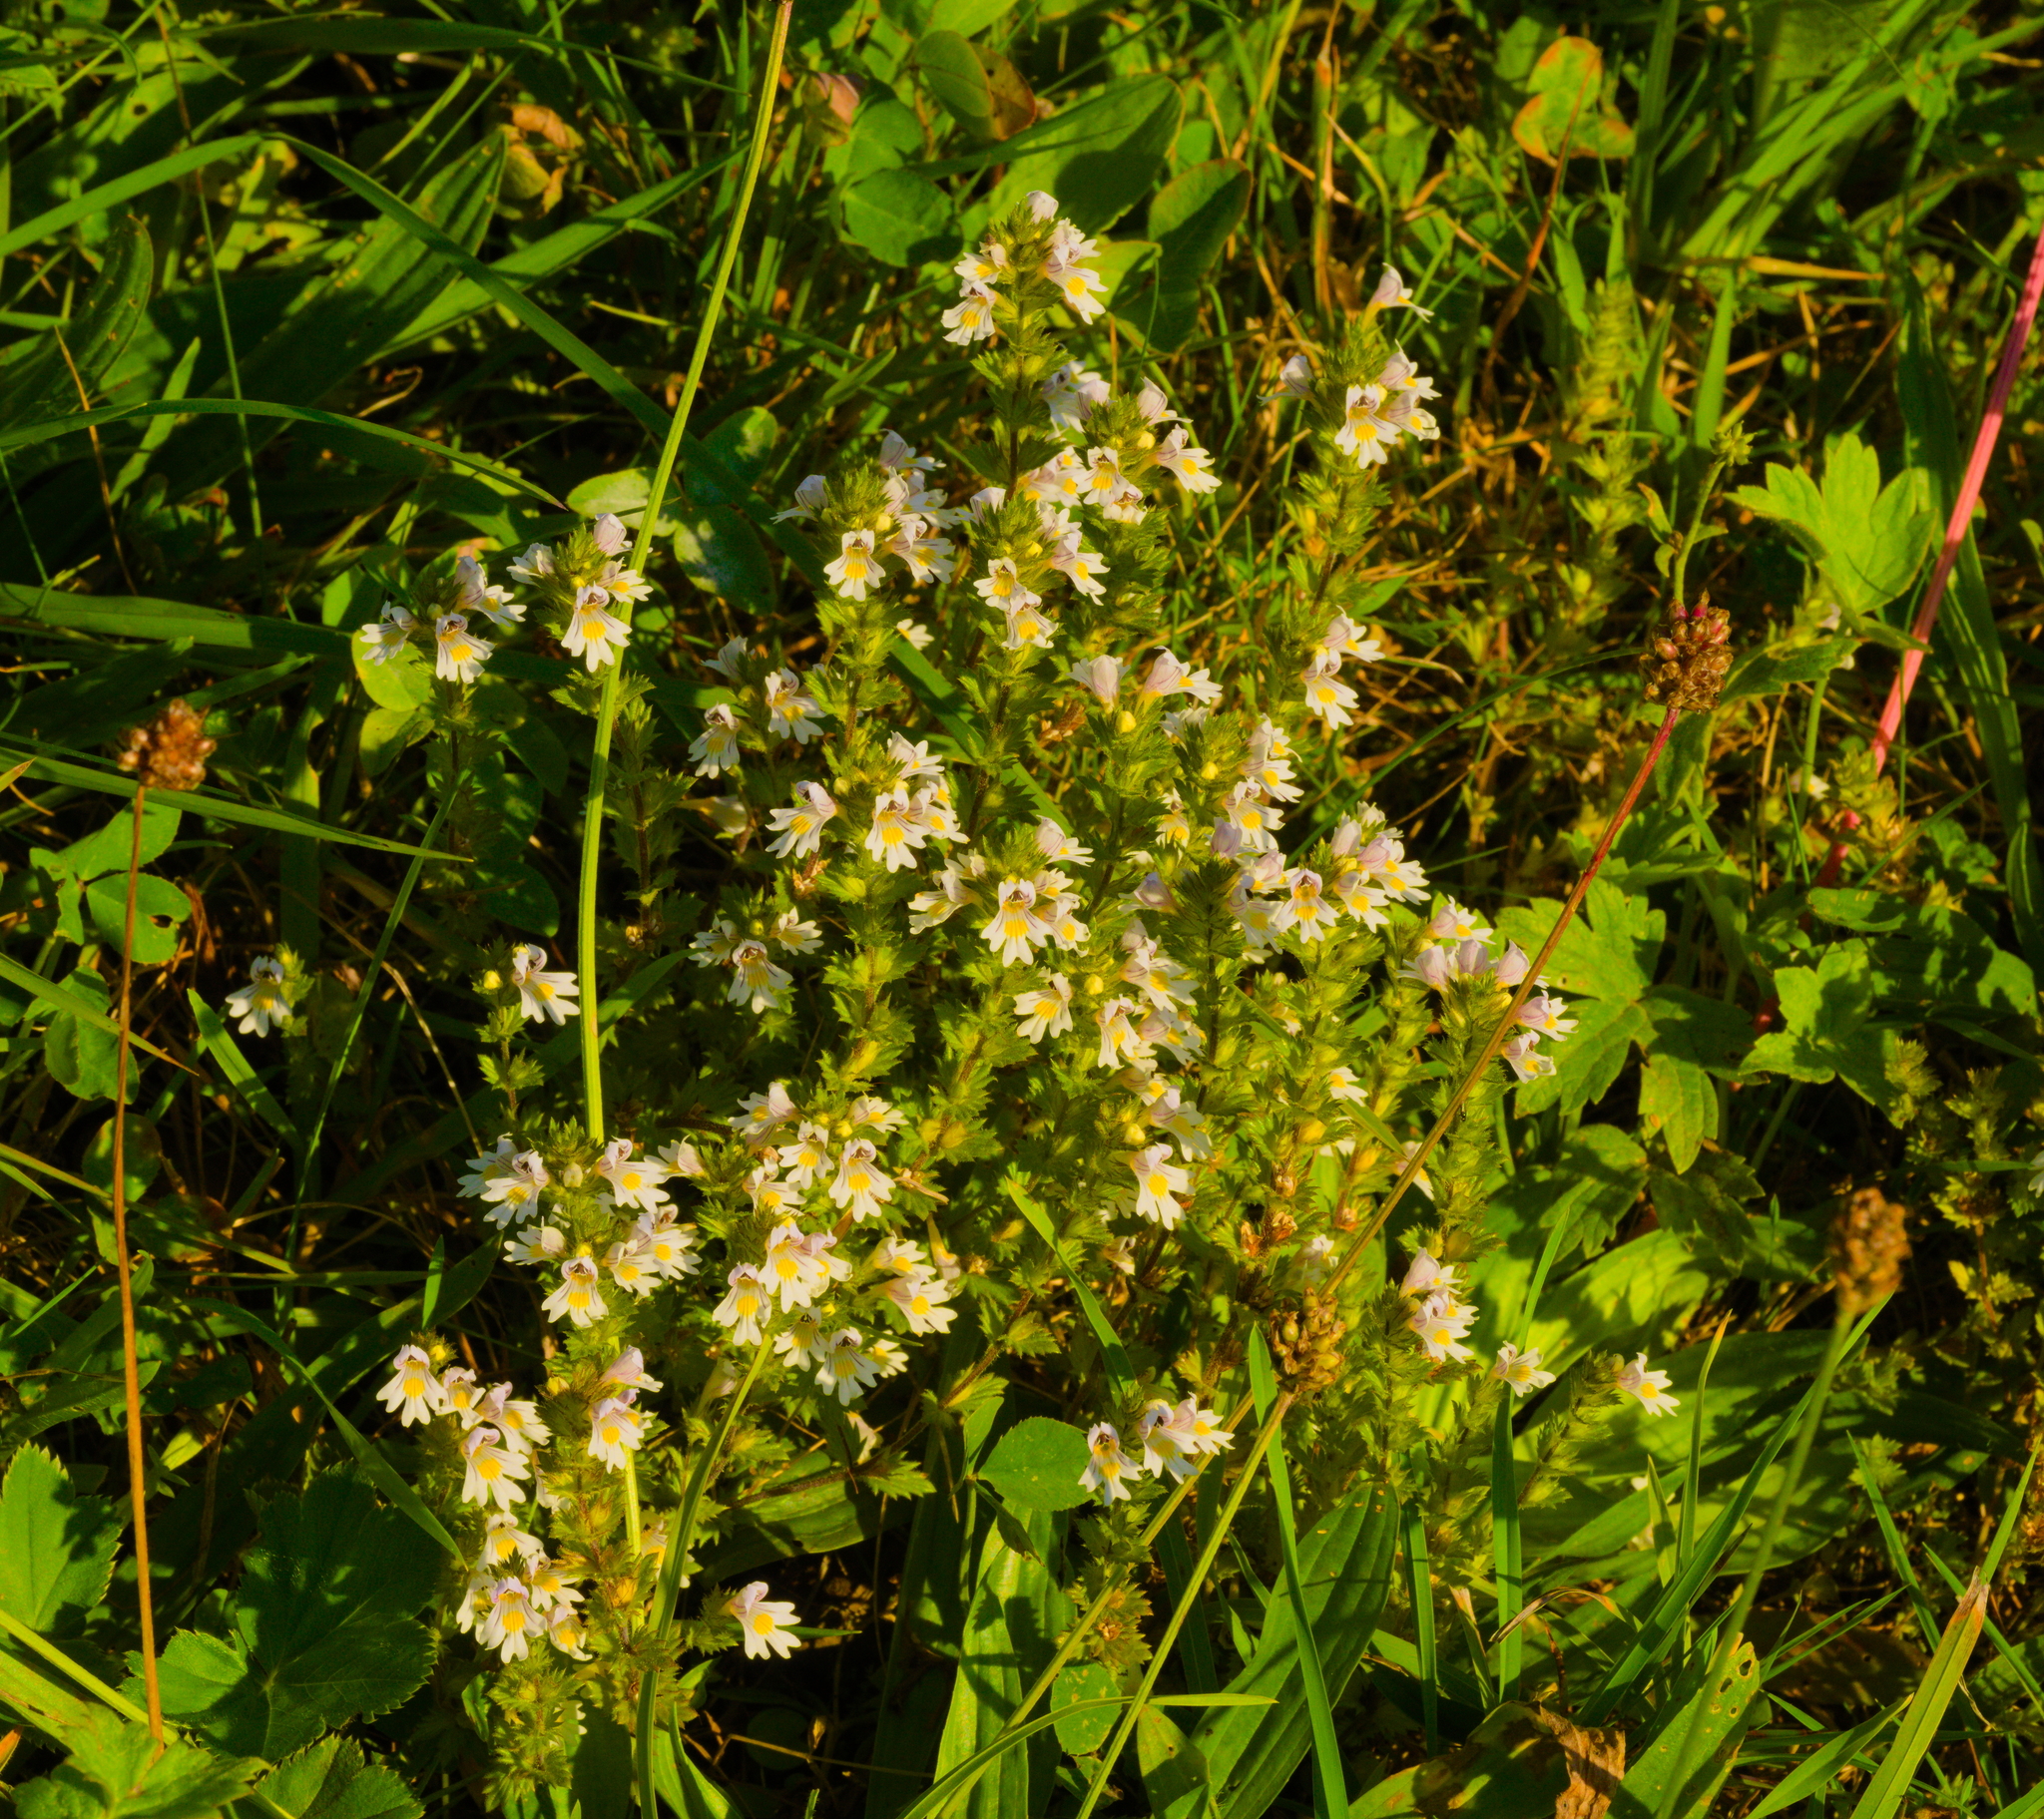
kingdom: Plantae
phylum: Tracheophyta
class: Magnoliopsida
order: Lamiales
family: Orobanchaceae
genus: Euphrasia
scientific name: Euphrasia officinalis
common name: Eyebright
